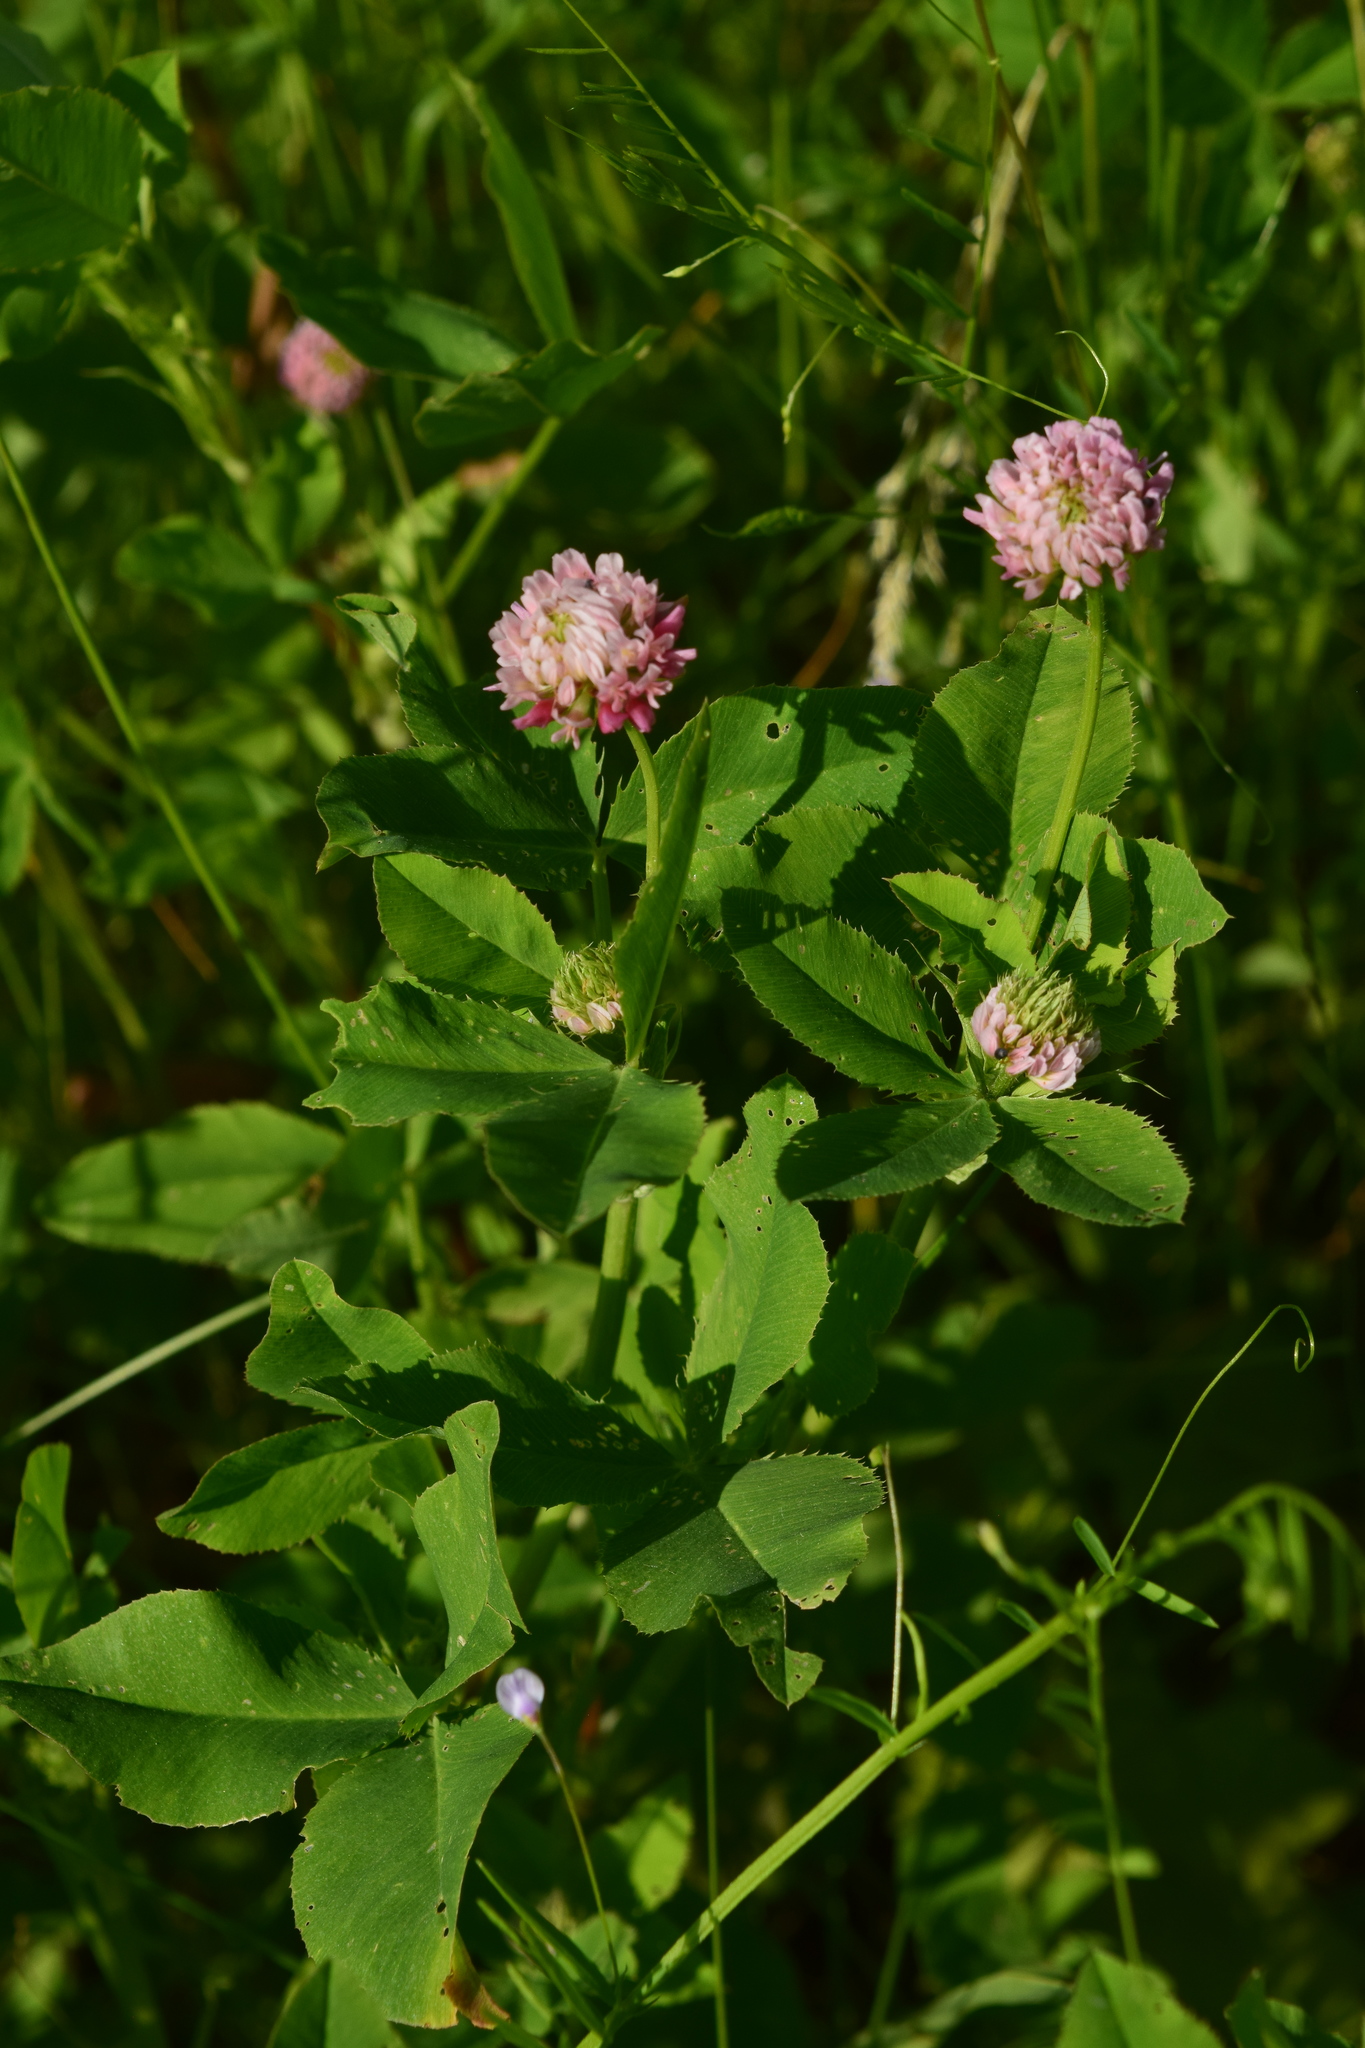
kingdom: Plantae
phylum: Tracheophyta
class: Magnoliopsida
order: Fabales
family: Fabaceae
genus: Trifolium
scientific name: Trifolium hybridum
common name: Alsike clover
